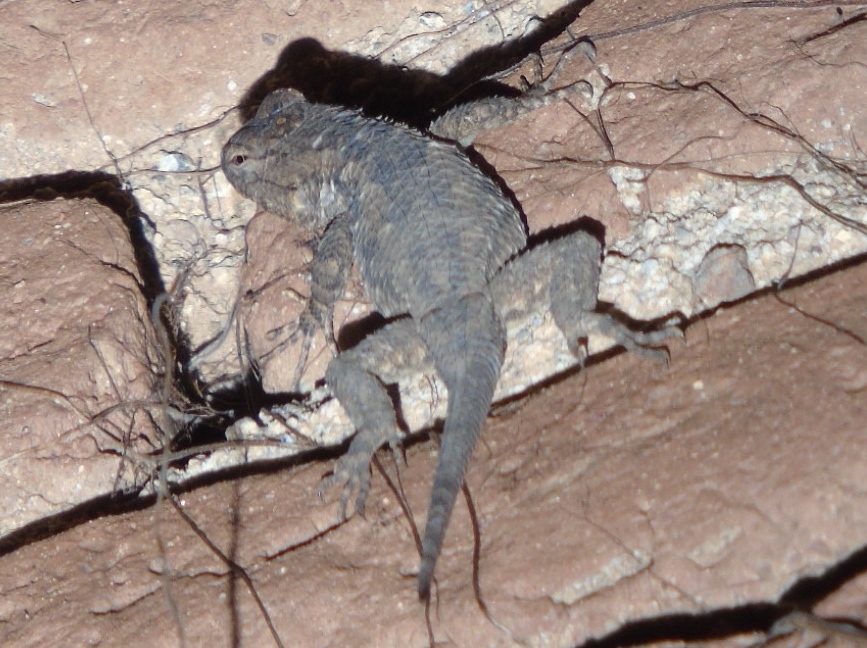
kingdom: Animalia
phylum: Chordata
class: Squamata
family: Phrynosomatidae
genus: Sceloporus
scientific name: Sceloporus clarkii
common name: Clark's spiny lizard
